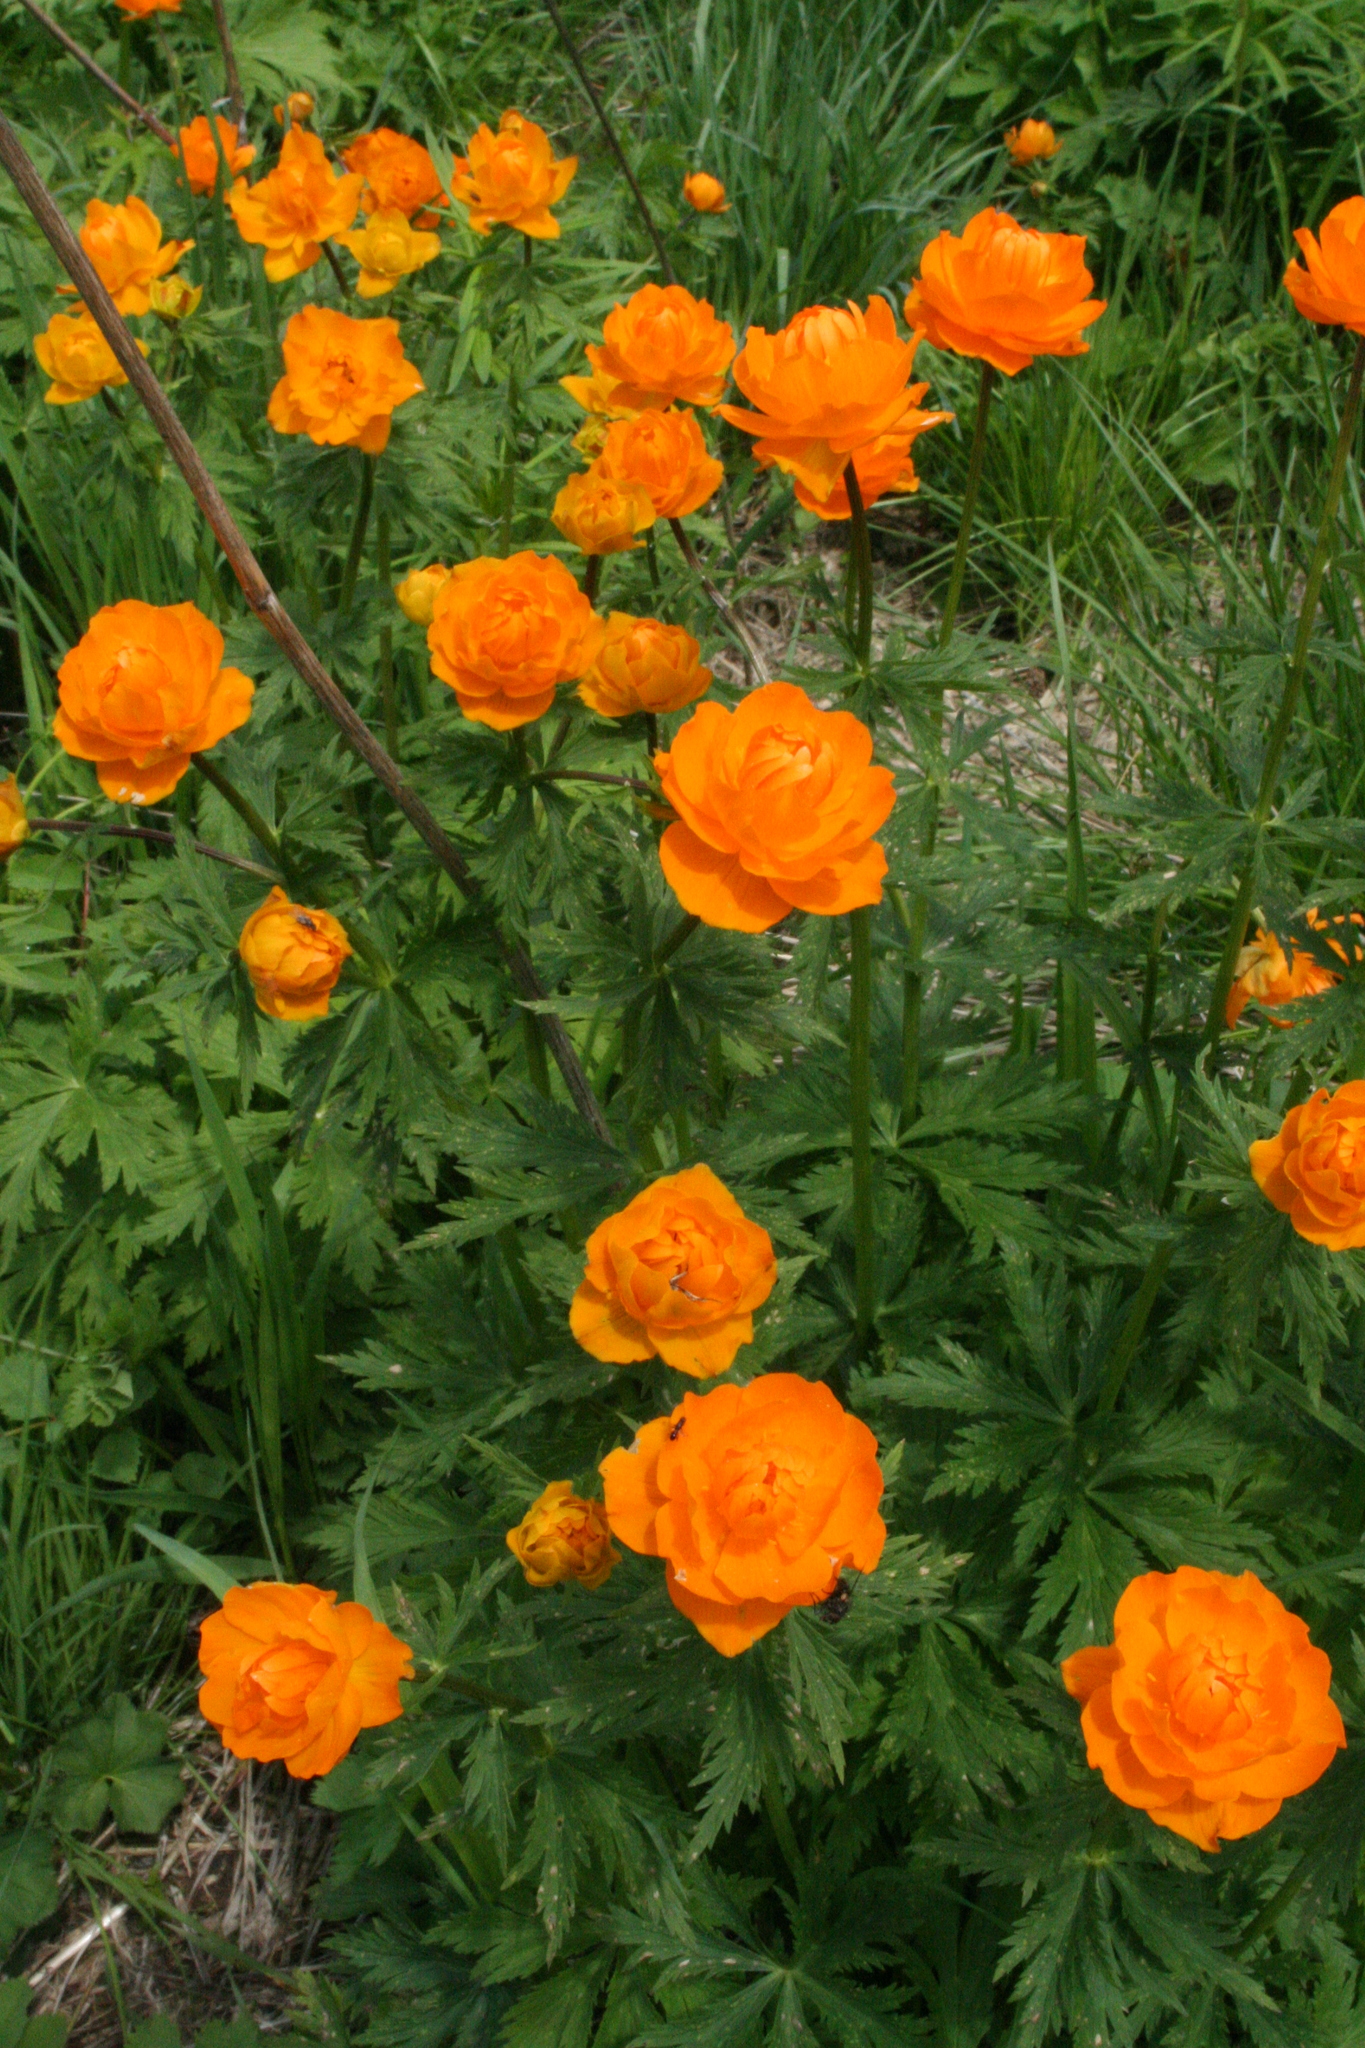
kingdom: Plantae
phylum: Tracheophyta
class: Magnoliopsida
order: Ranunculales
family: Ranunculaceae
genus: Trollius
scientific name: Trollius asiaticus
